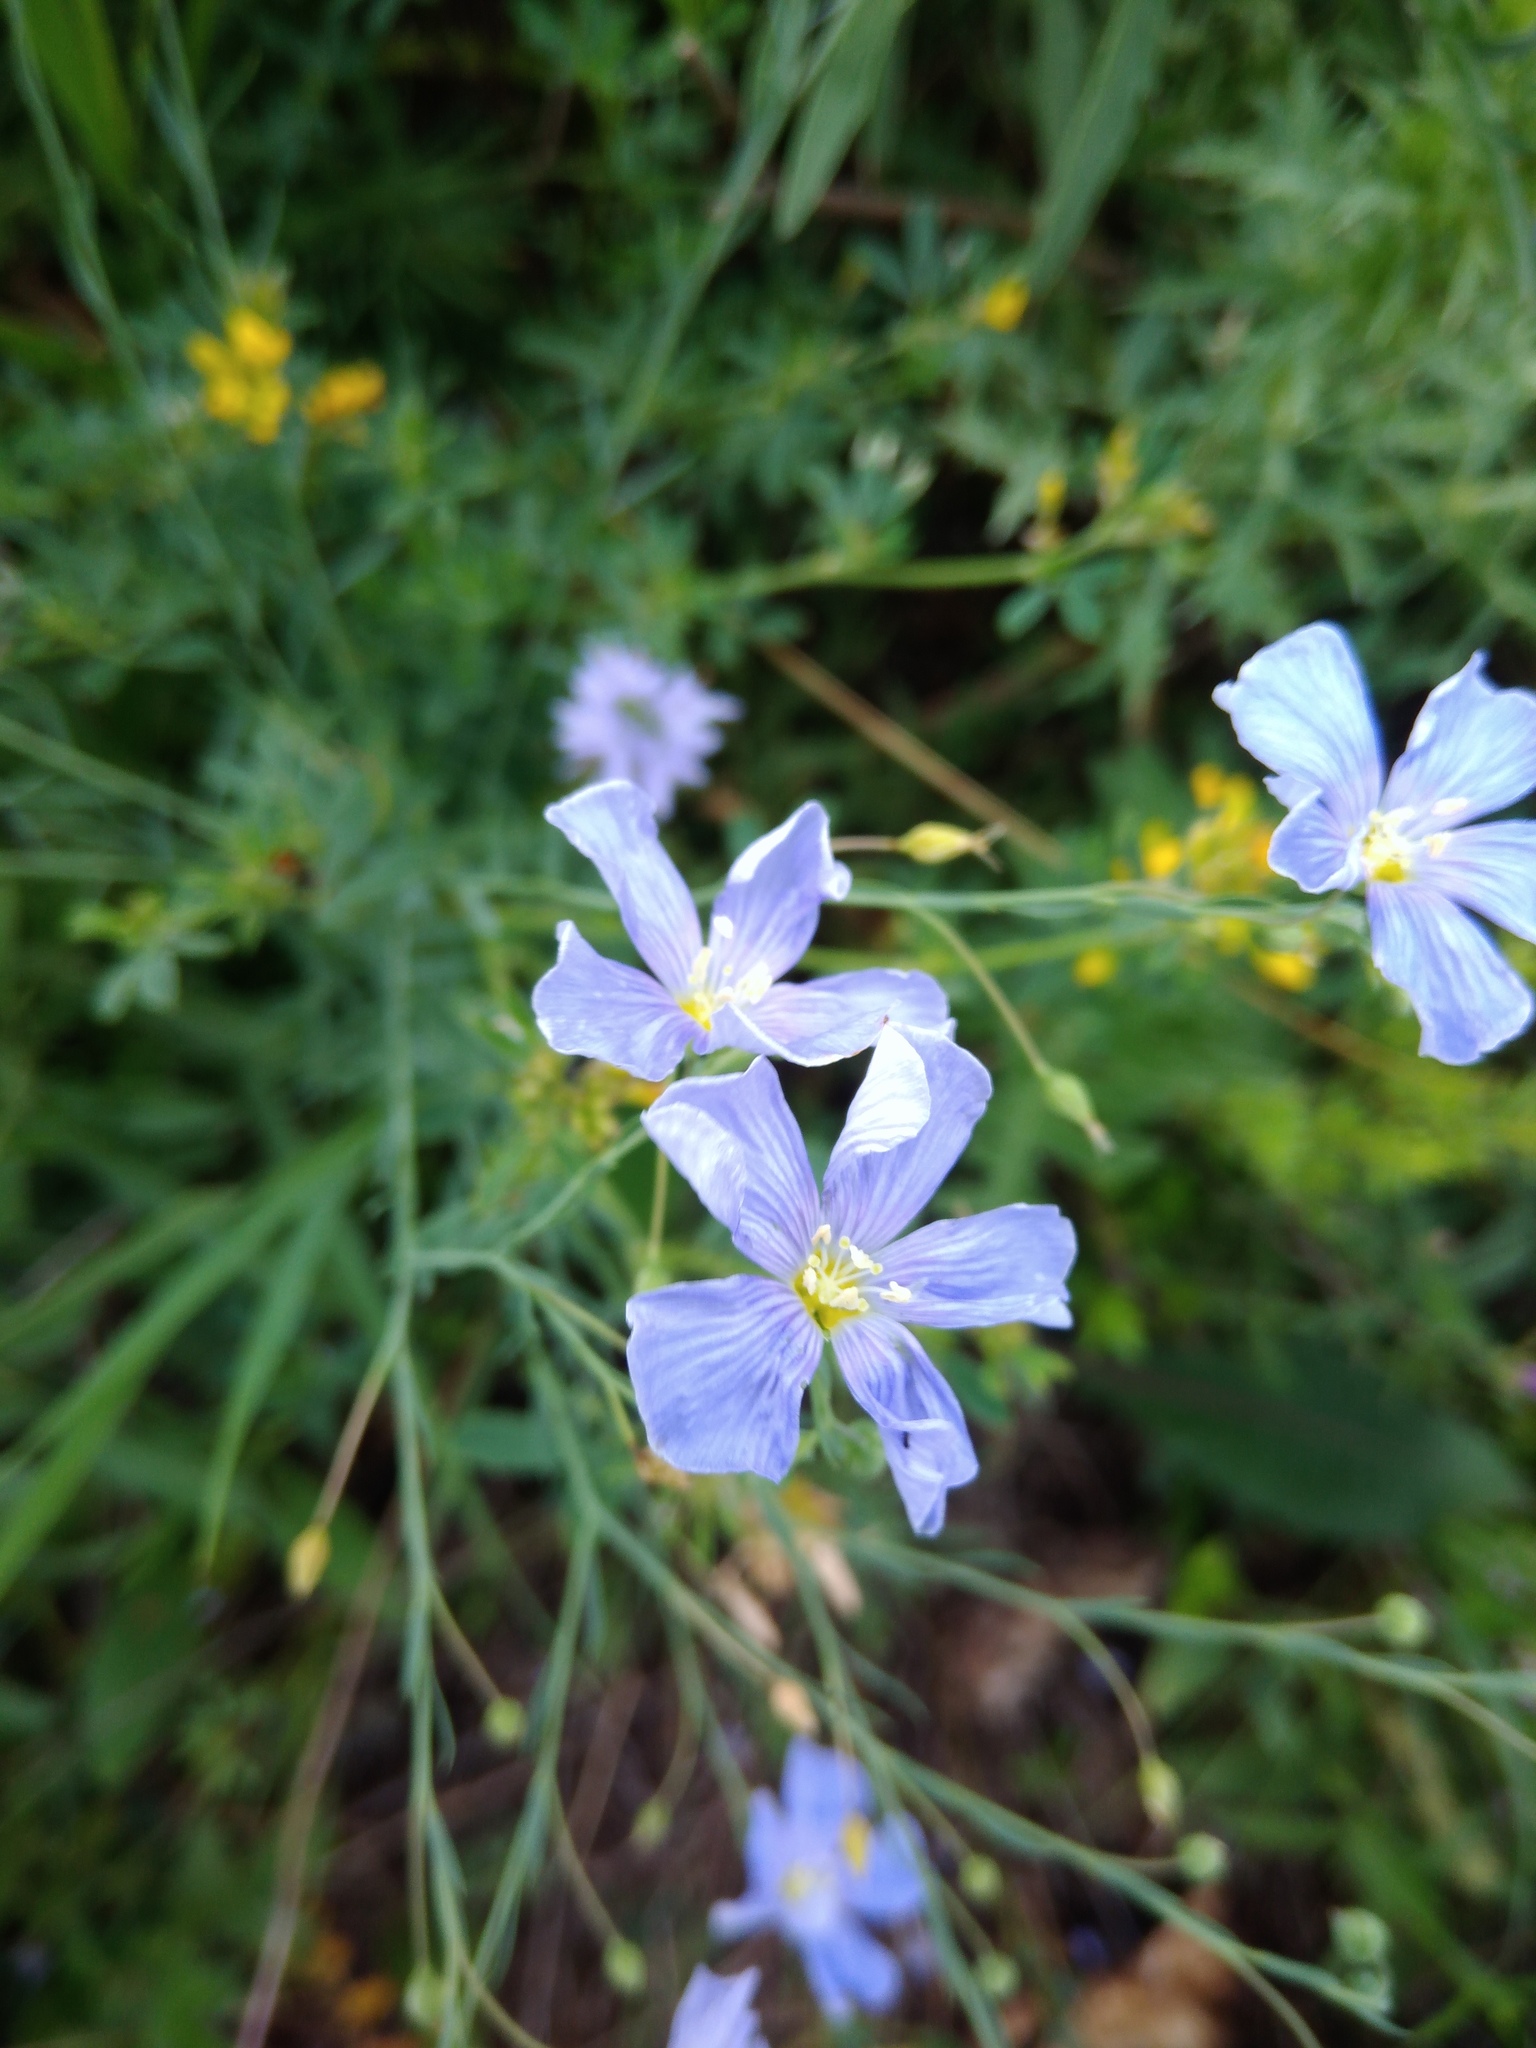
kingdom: Plantae
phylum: Tracheophyta
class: Magnoliopsida
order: Malpighiales
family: Linaceae
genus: Linum
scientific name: Linum perenne
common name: Blue flax
